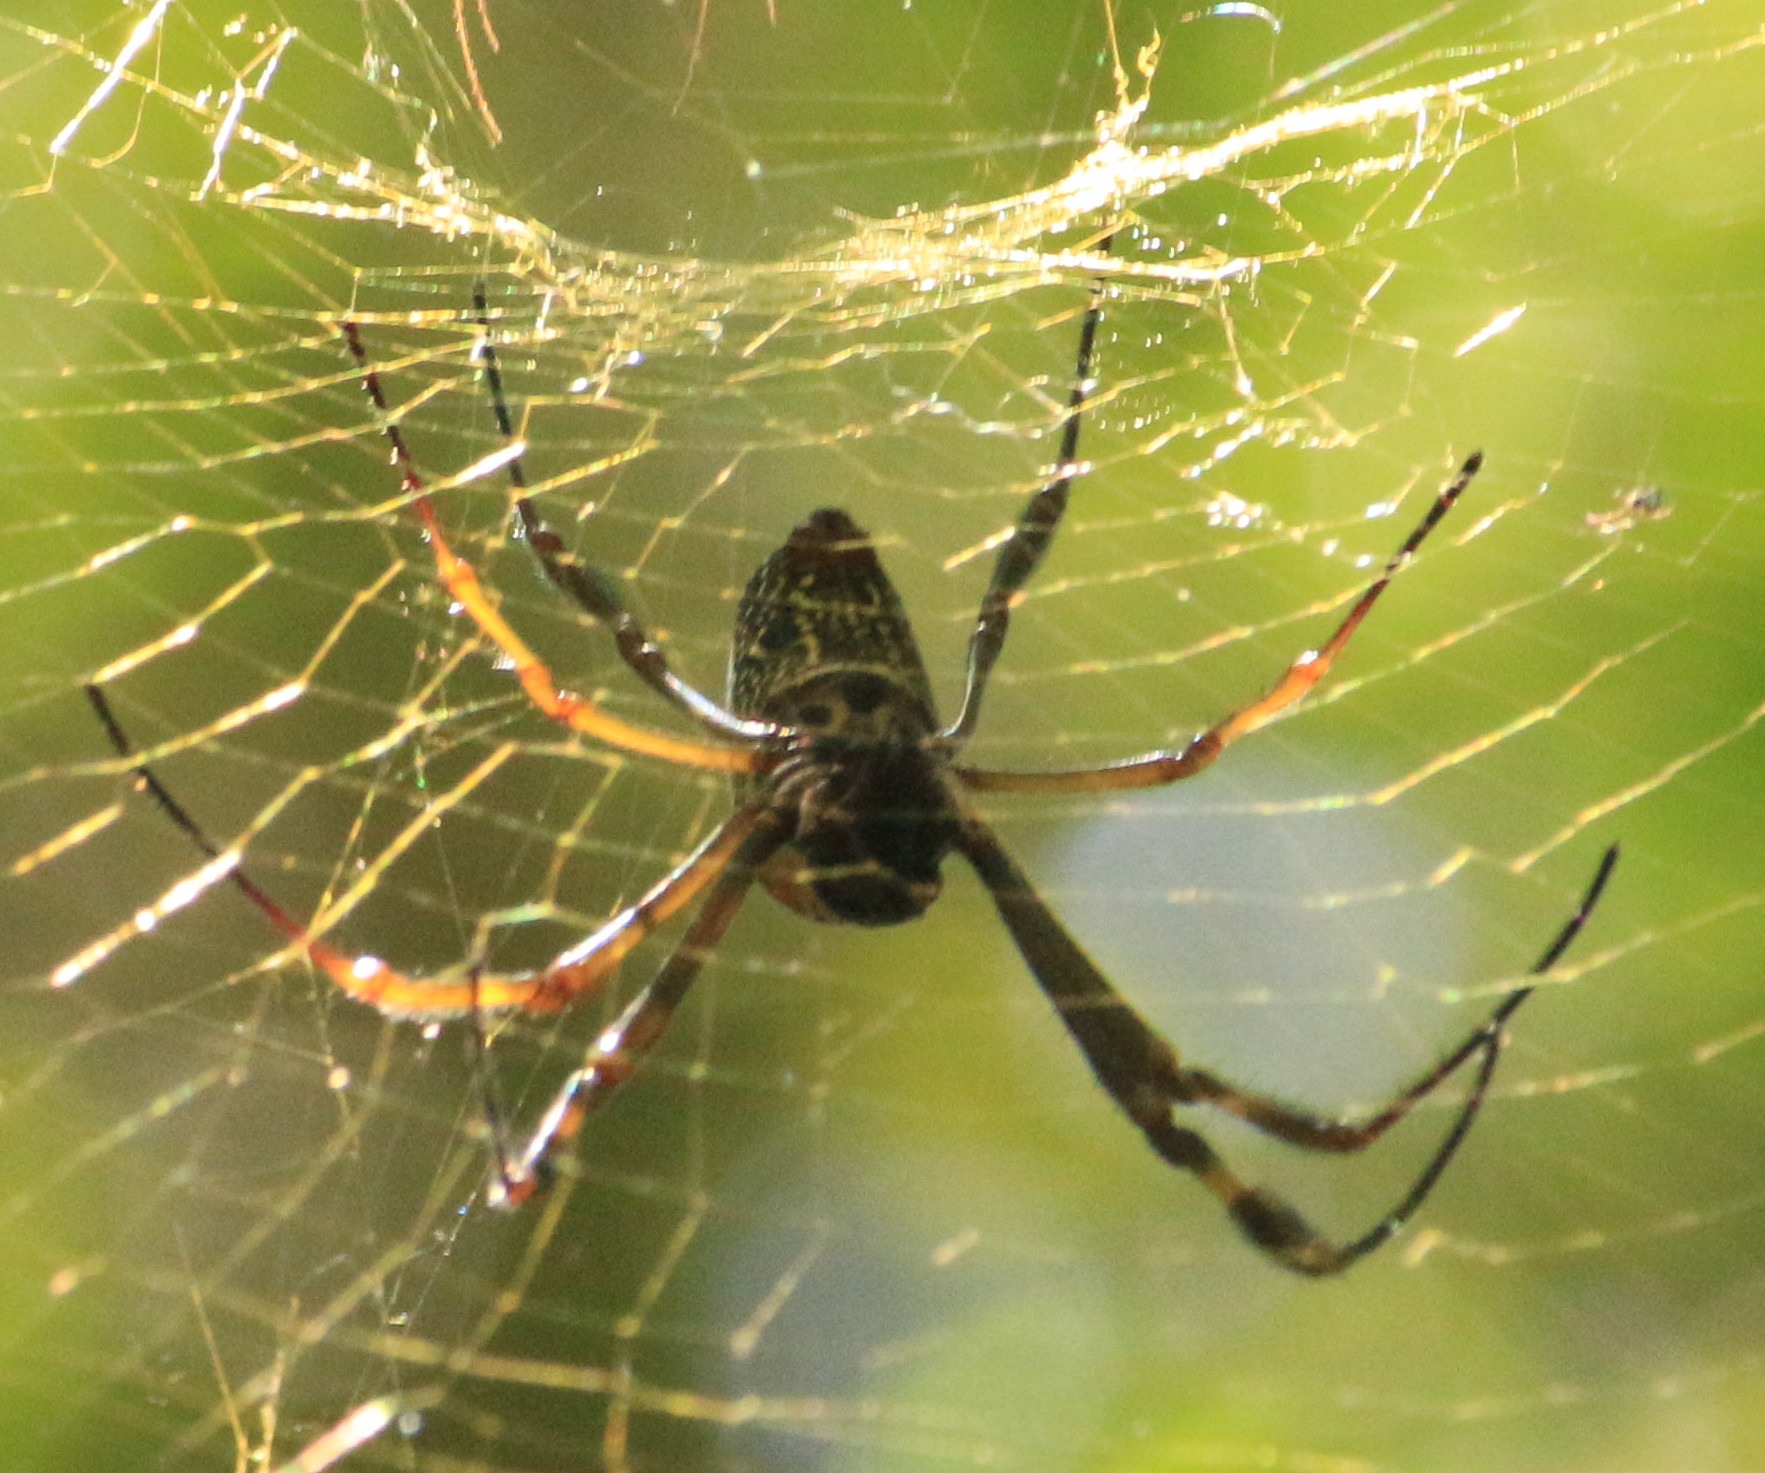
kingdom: Animalia
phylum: Arthropoda
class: Arachnida
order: Araneae
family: Araneidae
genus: Trichonephila
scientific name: Trichonephila clavipes
